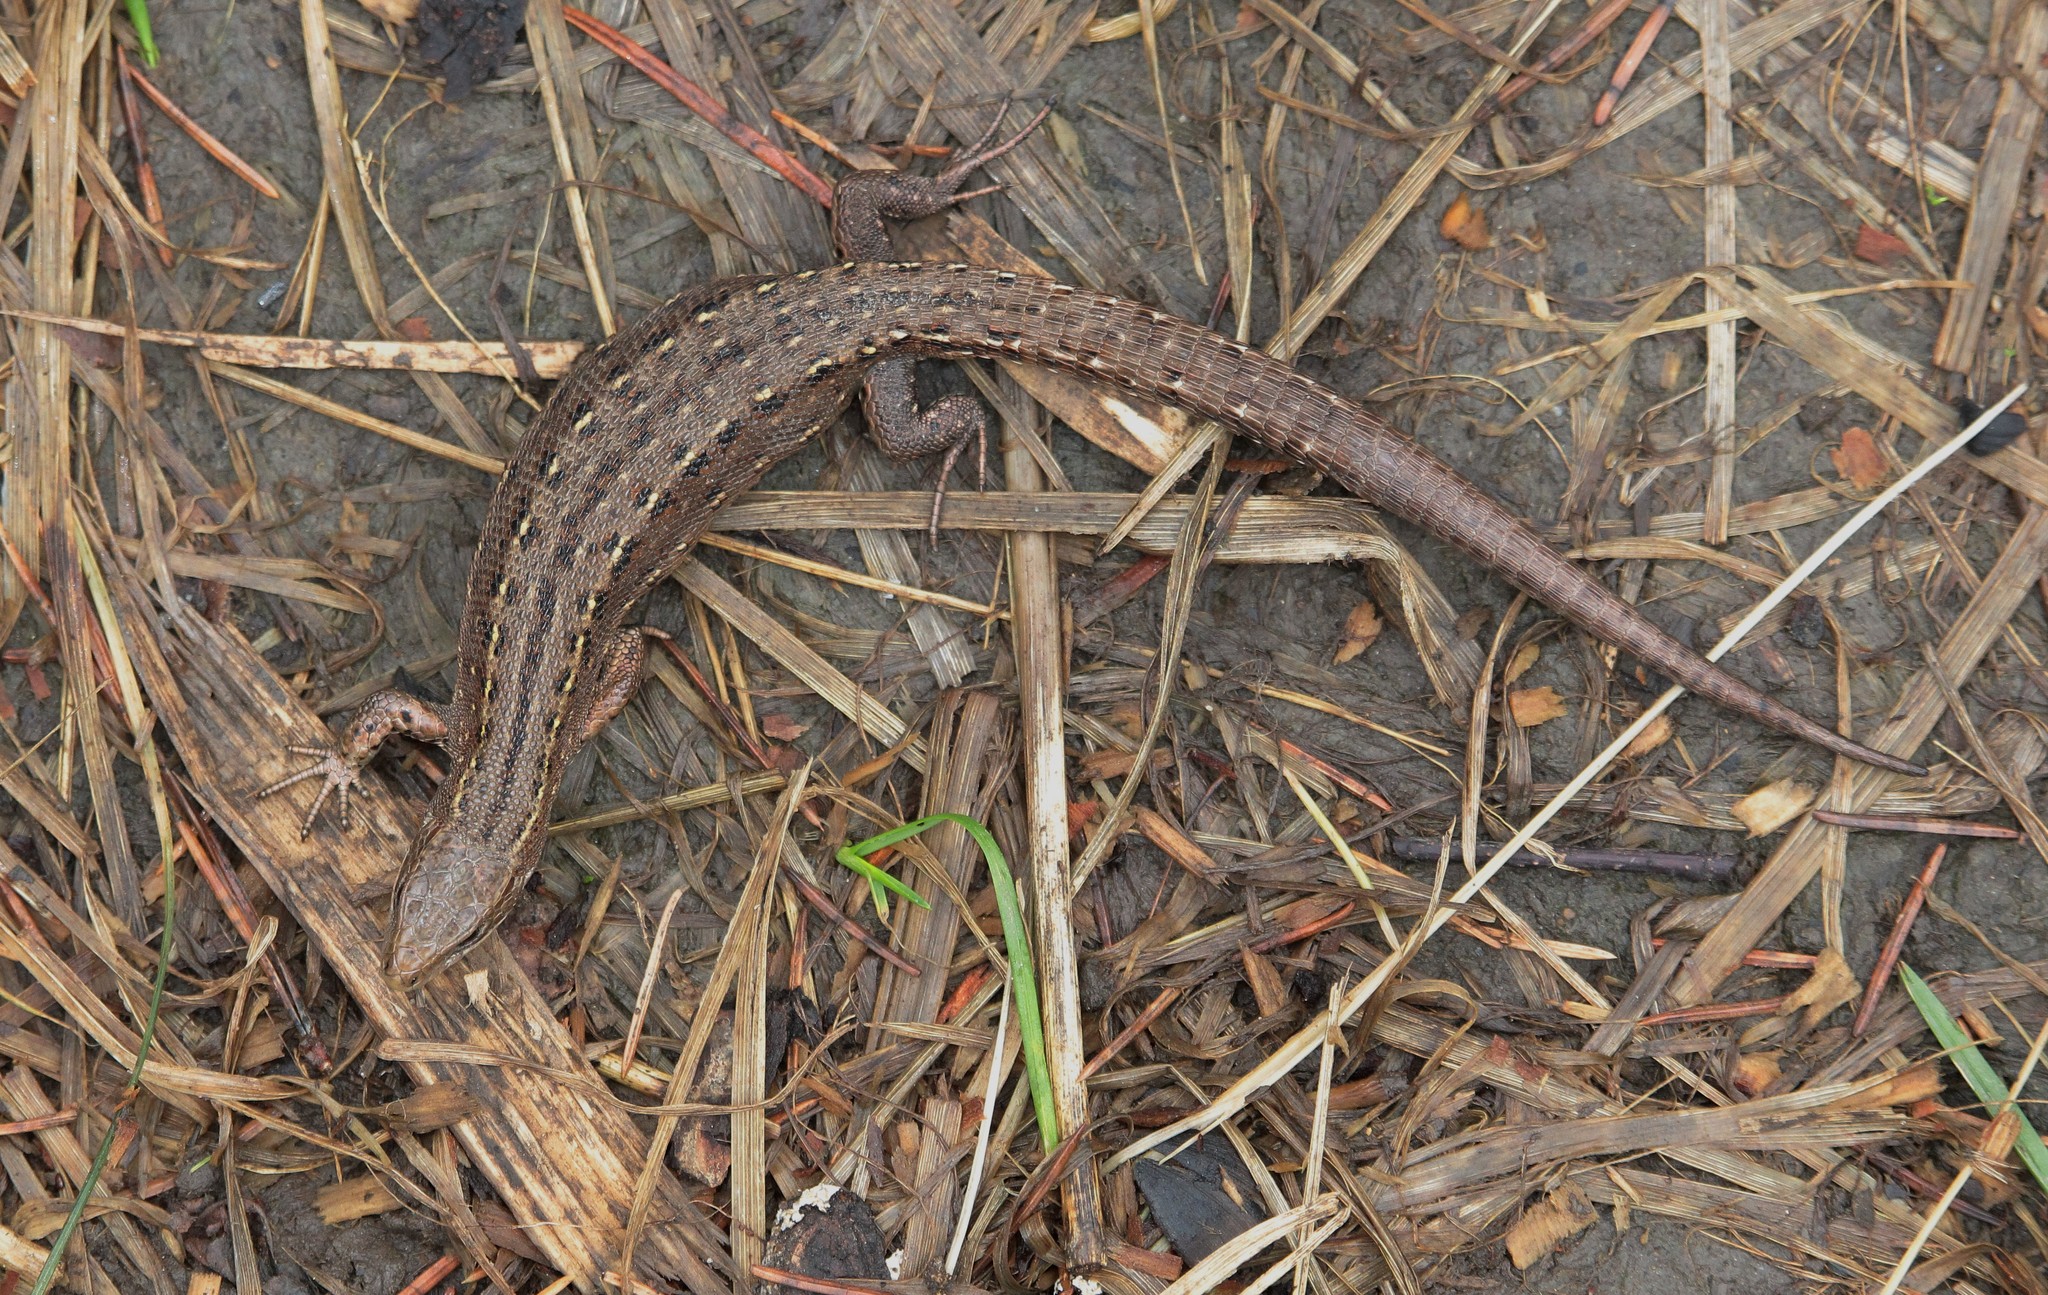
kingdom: Animalia
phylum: Chordata
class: Squamata
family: Lacertidae
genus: Zootoca
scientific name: Zootoca vivipara
